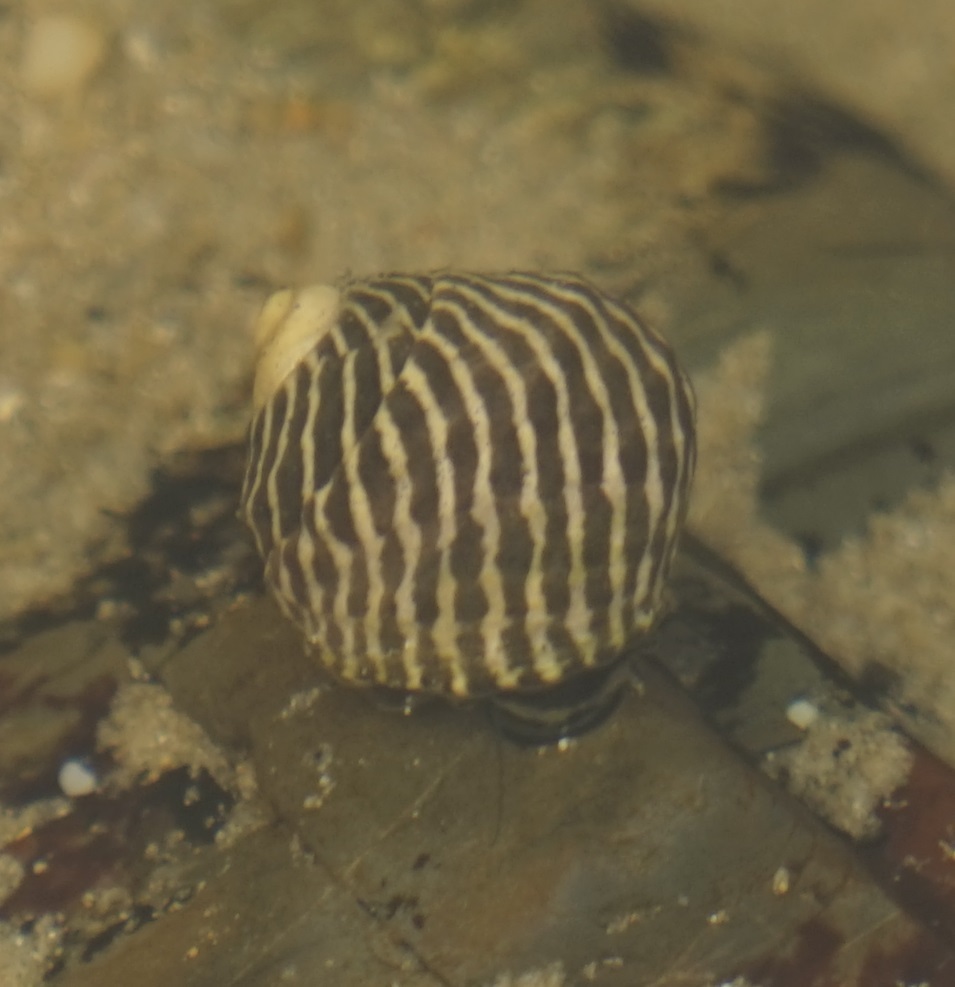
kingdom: Animalia
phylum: Mollusca
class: Gastropoda
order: Trochida
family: Trochidae
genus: Austrocochlea
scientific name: Austrocochlea porcata
